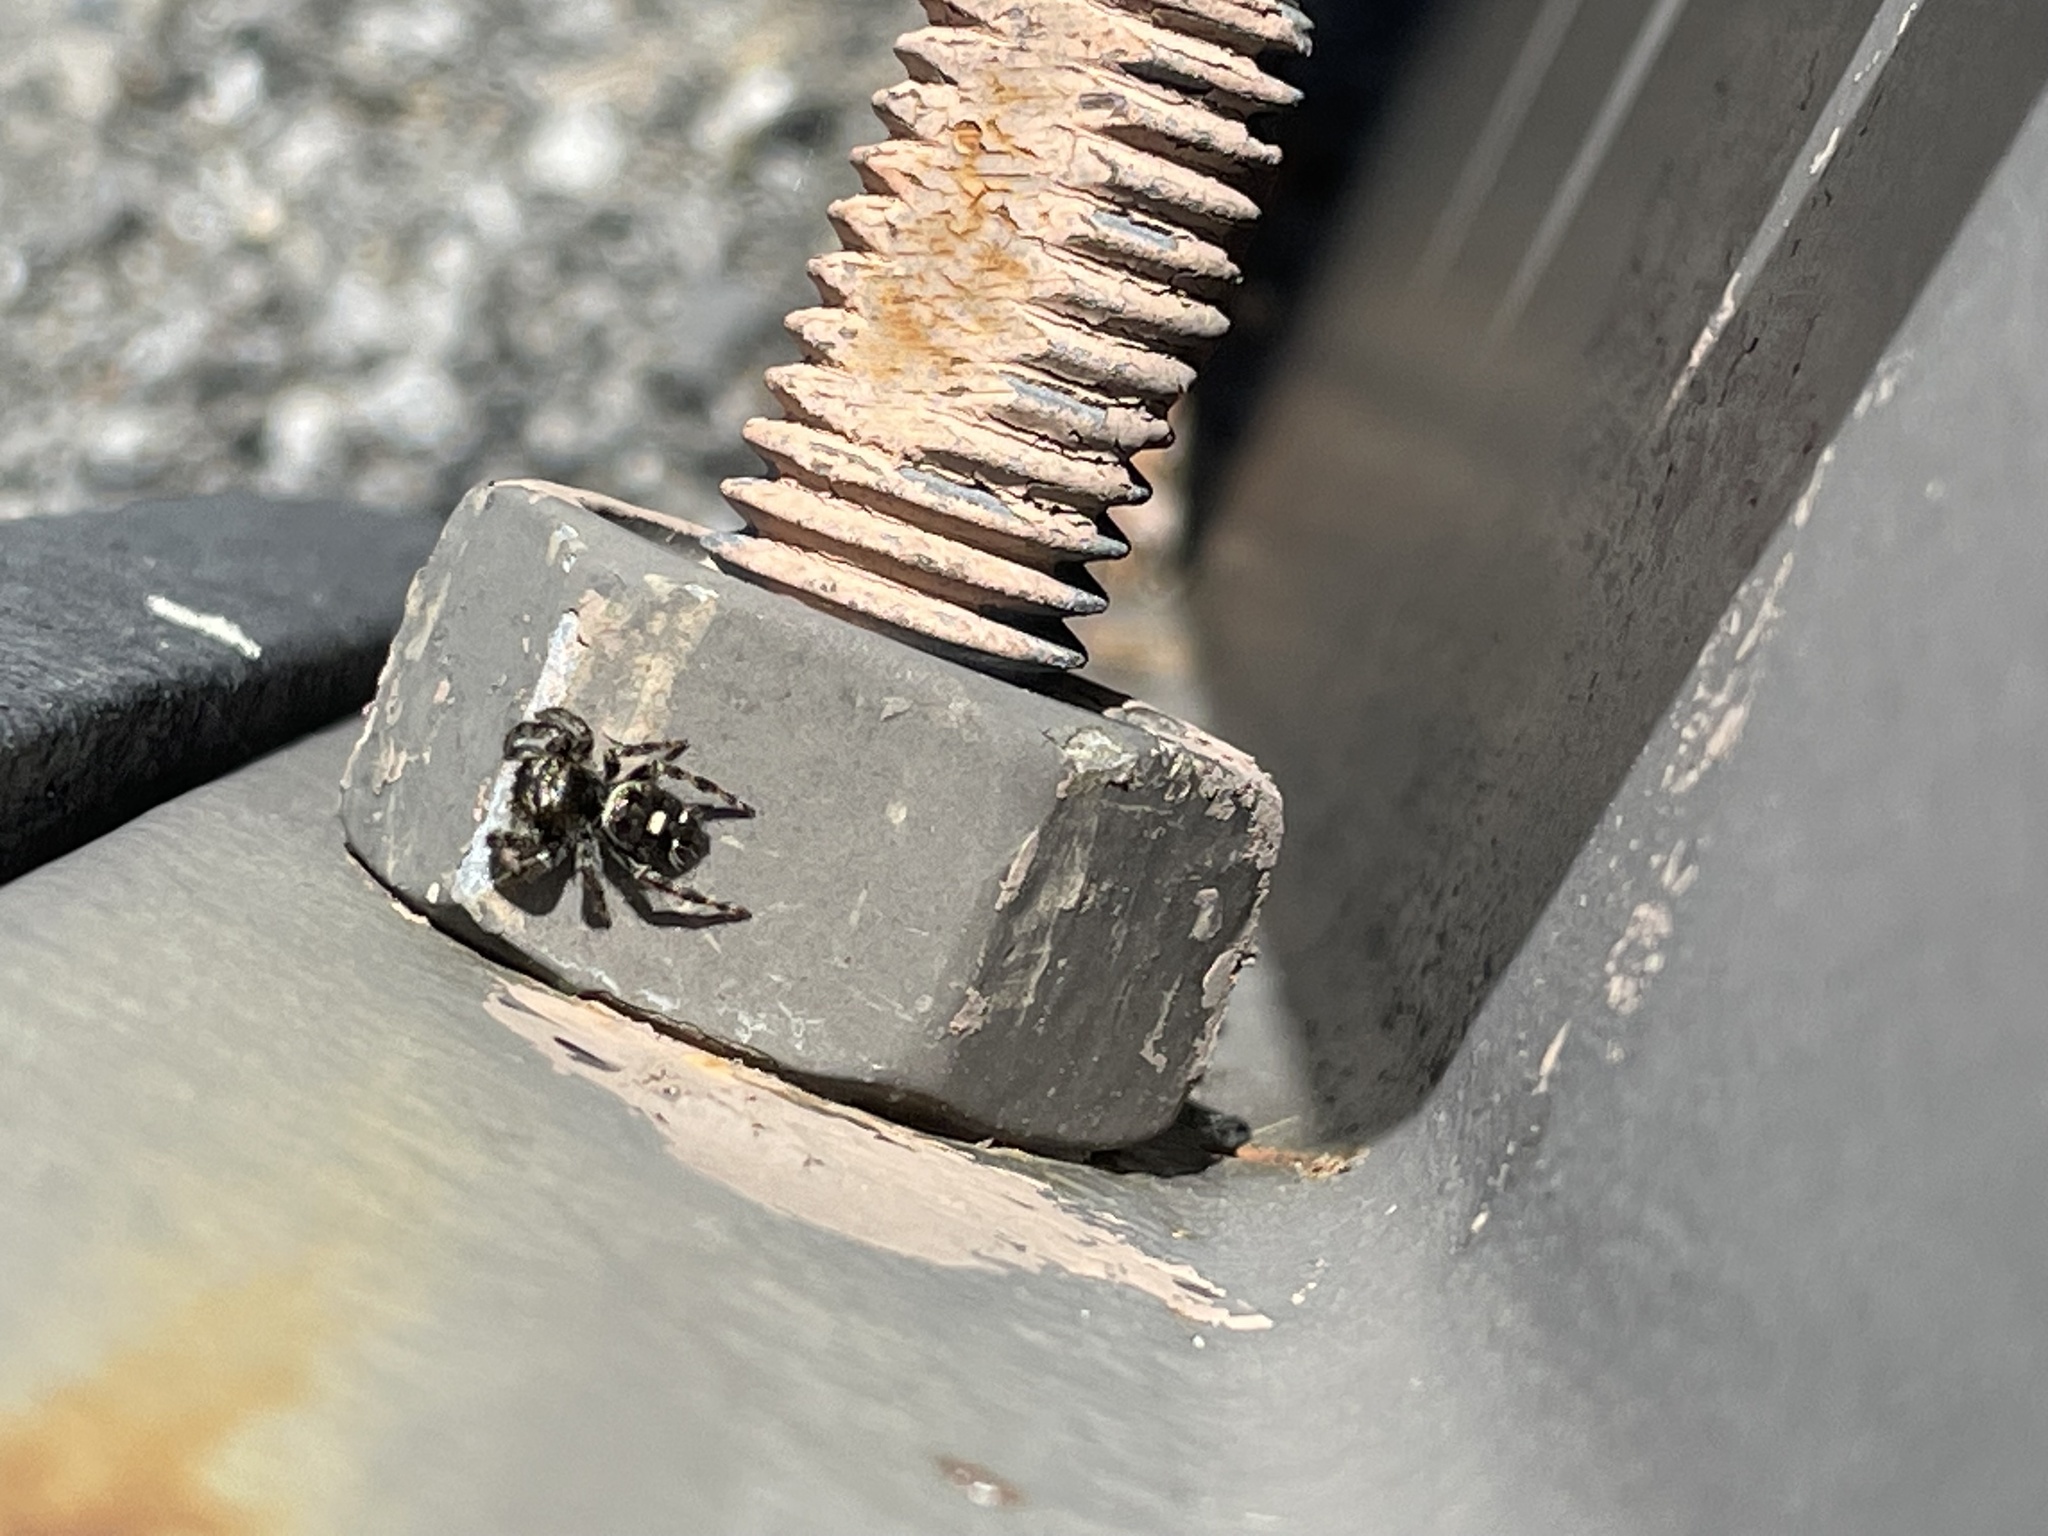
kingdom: Animalia
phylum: Arthropoda
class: Arachnida
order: Araneae
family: Salticidae
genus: Phidippus
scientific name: Phidippus audax
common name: Bold jumper
